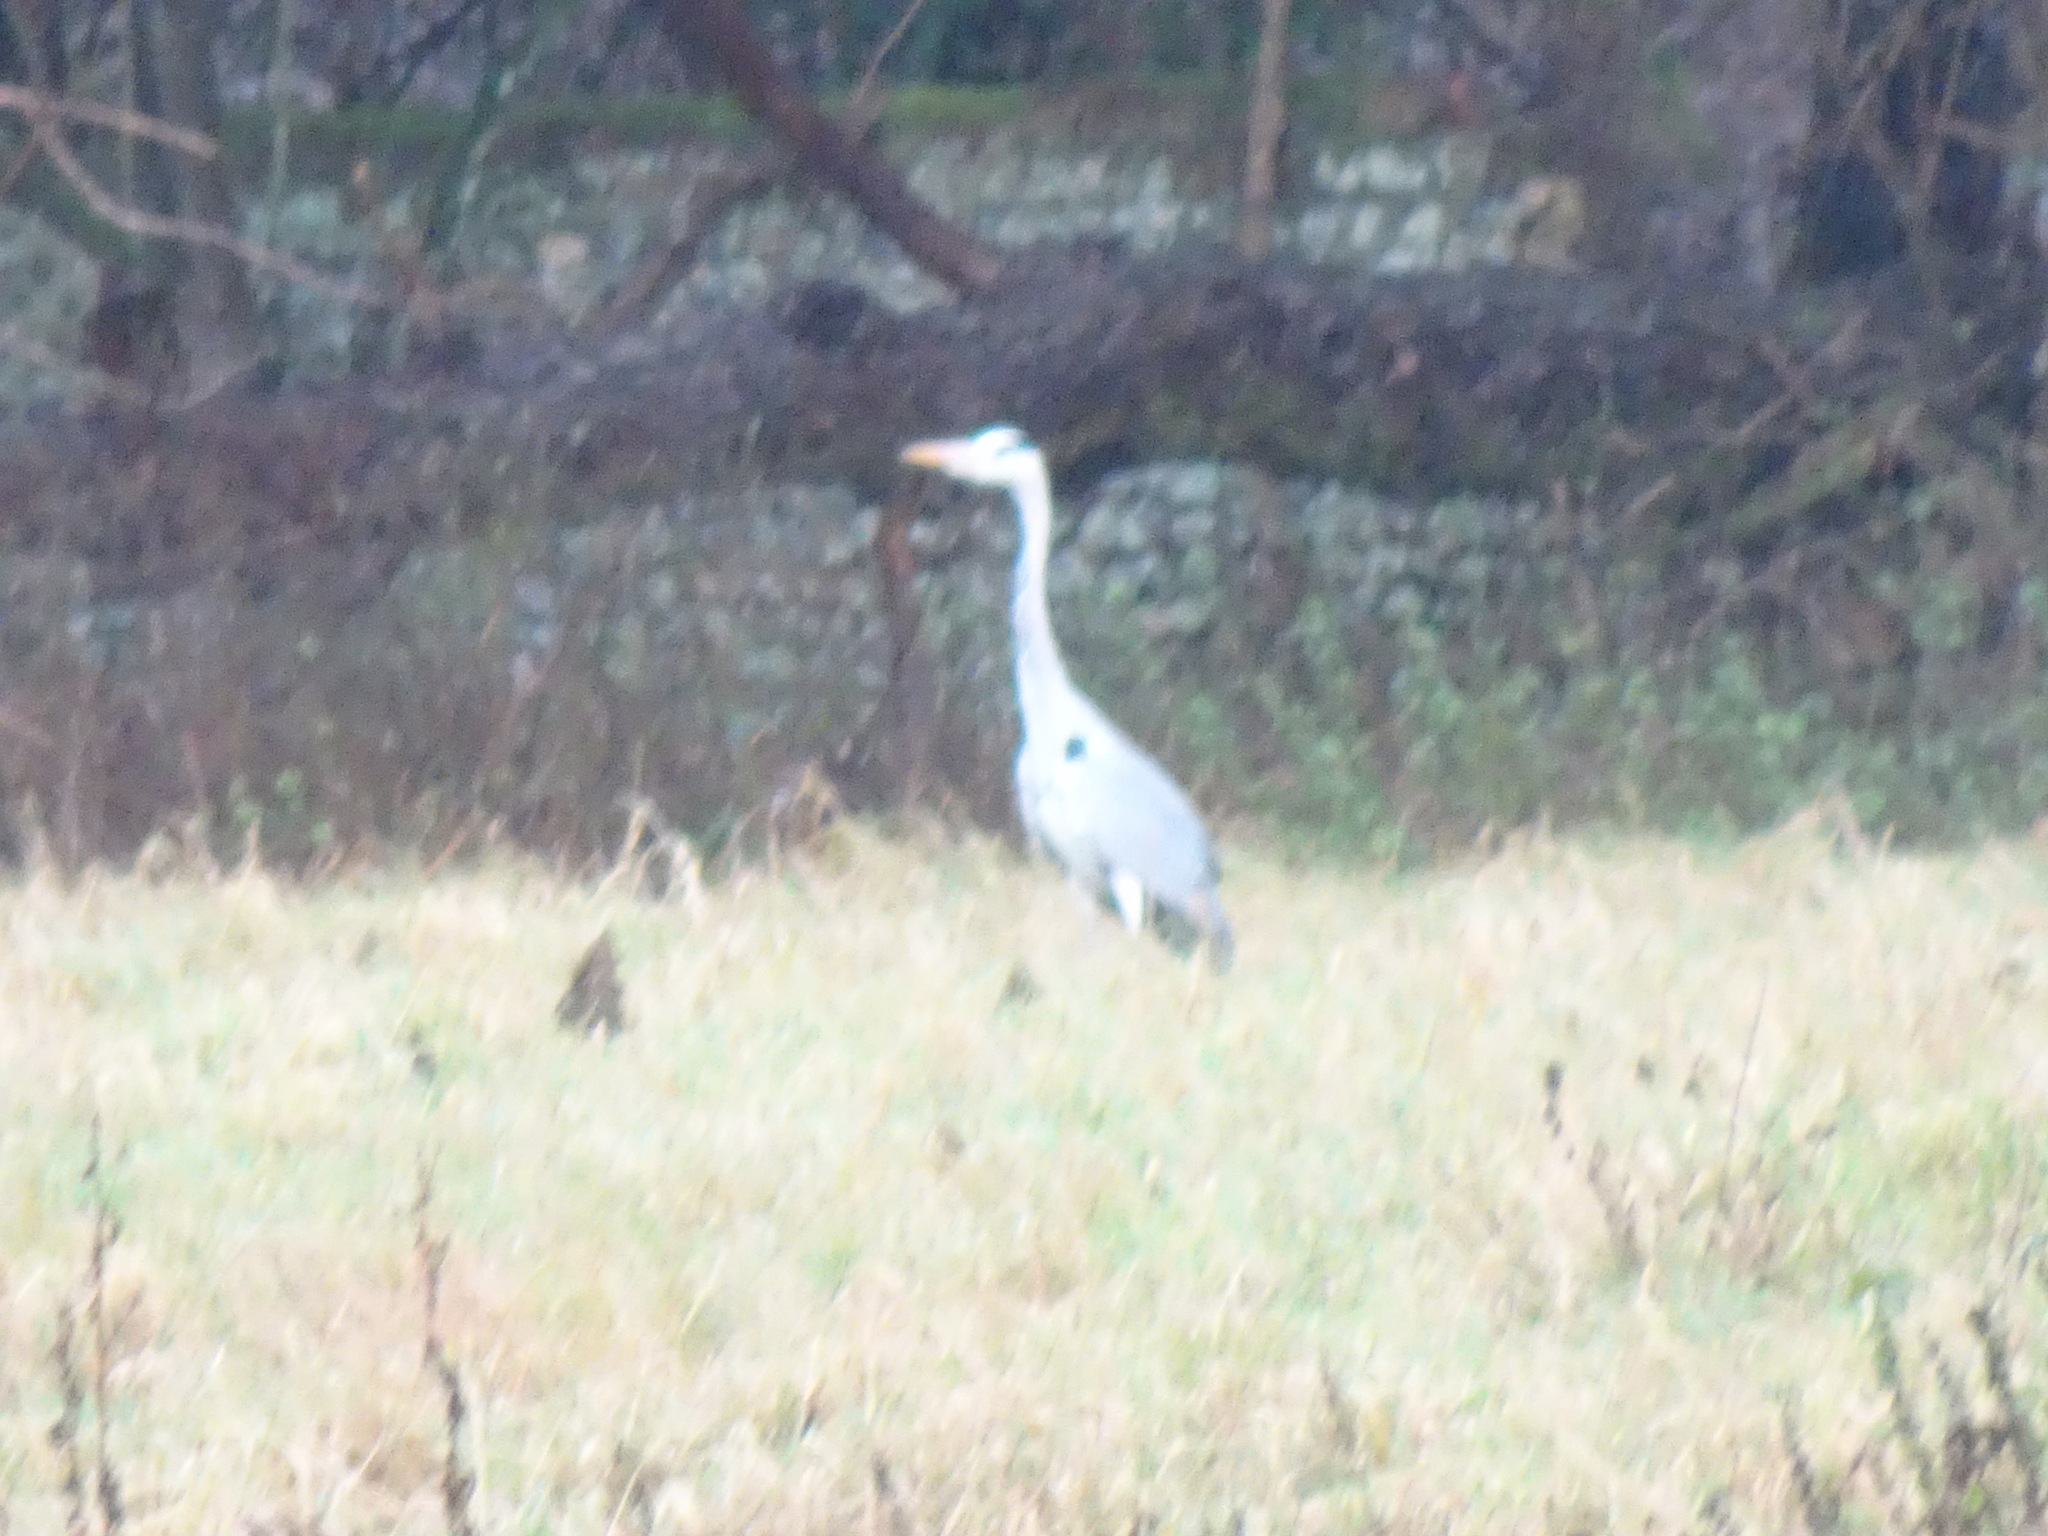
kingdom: Animalia
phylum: Chordata
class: Aves
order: Pelecaniformes
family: Ardeidae
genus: Ardea
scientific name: Ardea cinerea
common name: Grey heron
